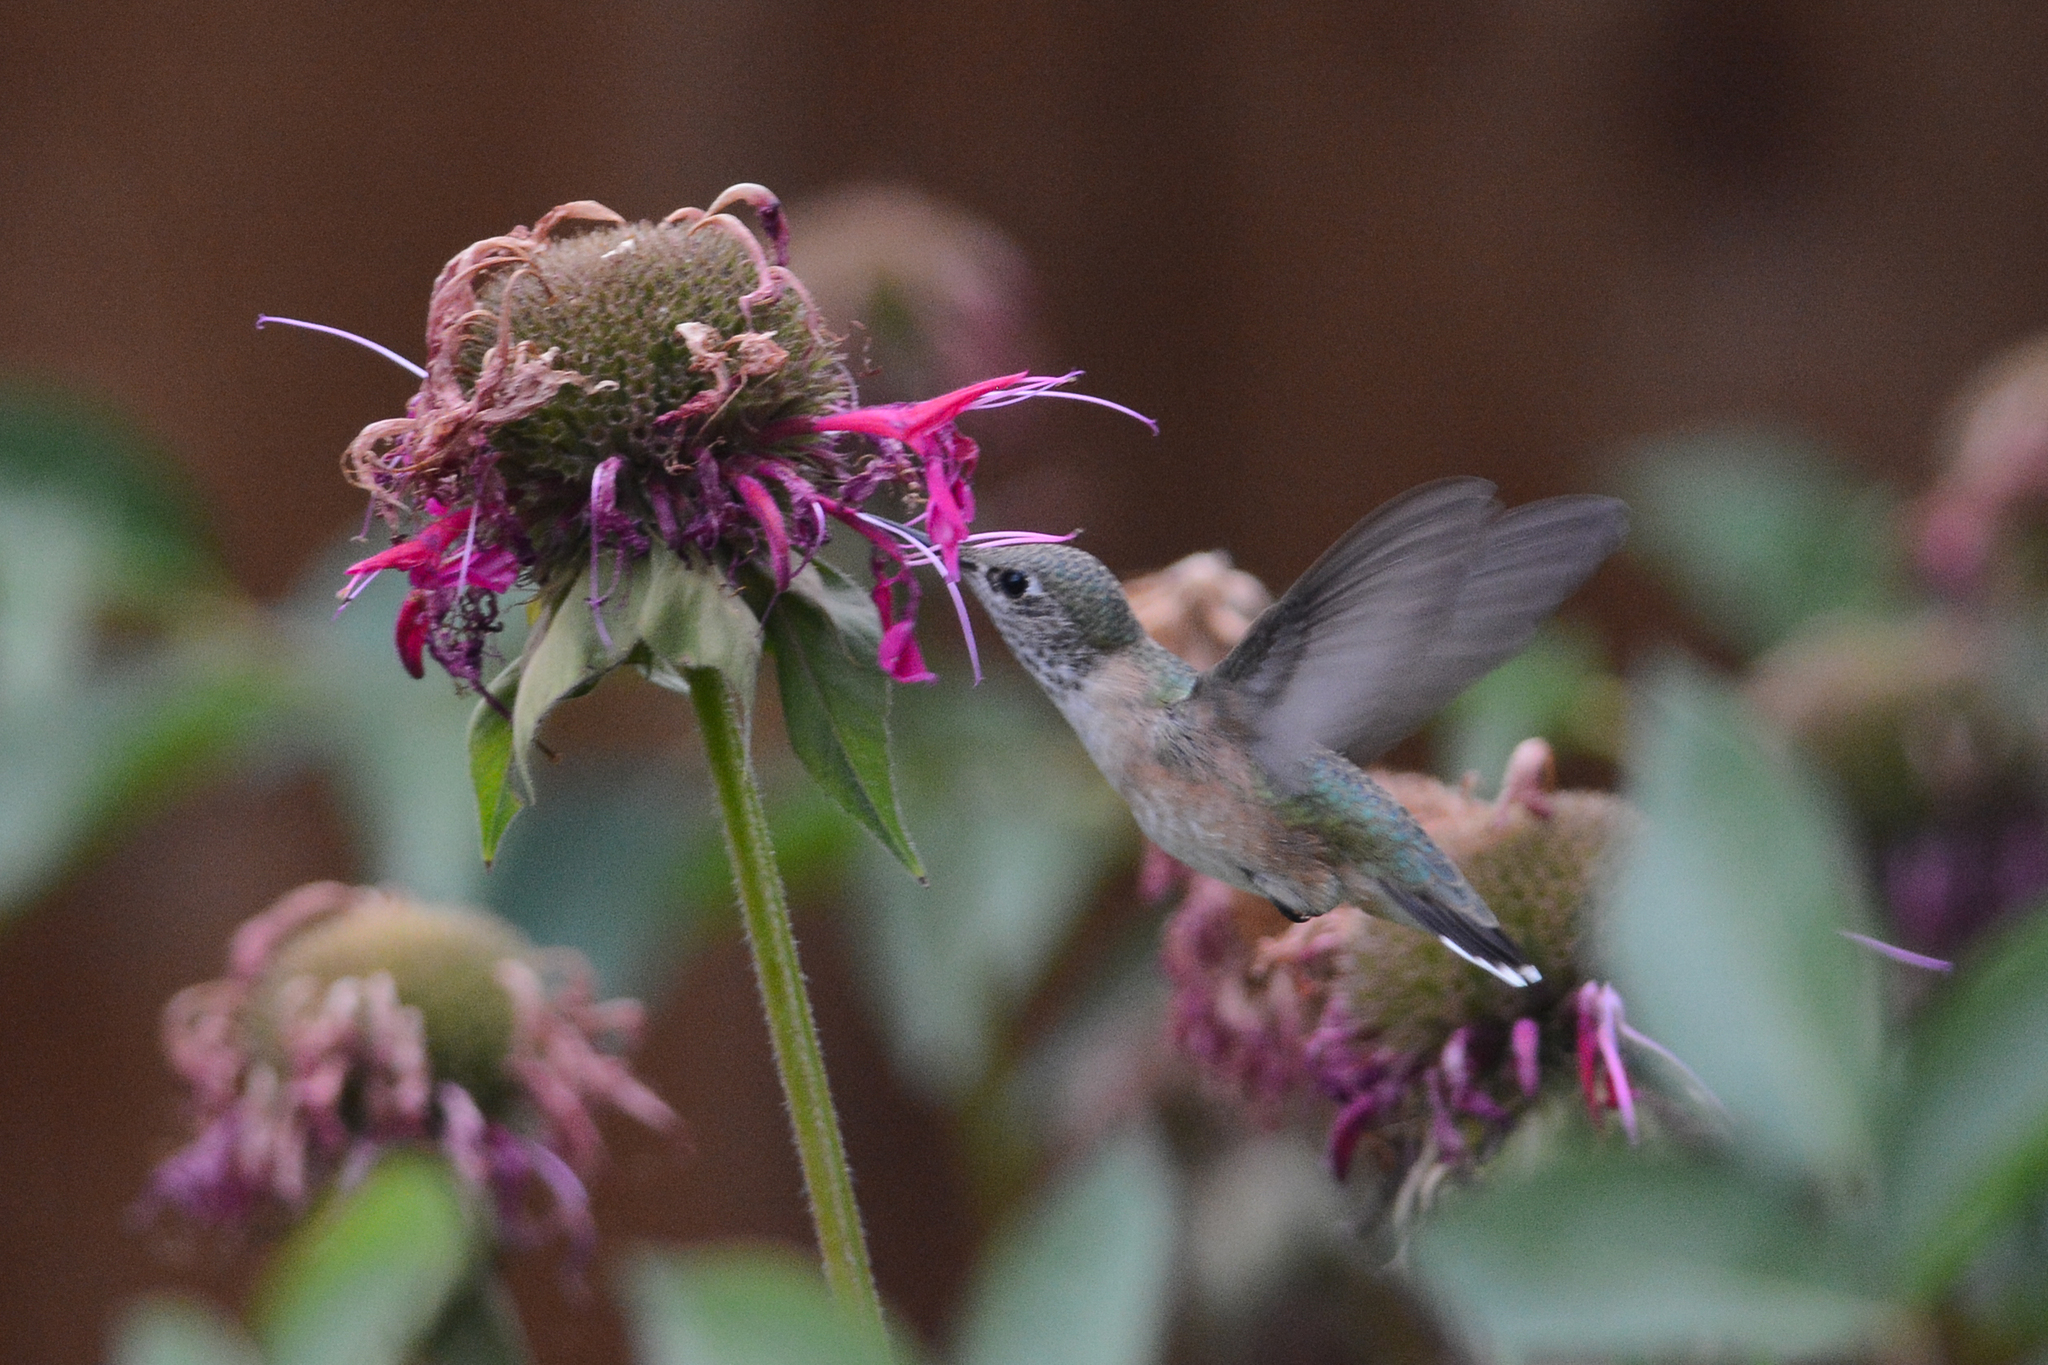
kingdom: Animalia
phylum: Chordata
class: Aves
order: Apodiformes
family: Trochilidae
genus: Selasphorus
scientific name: Selasphorus calliope
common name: Calliope hummingbird
